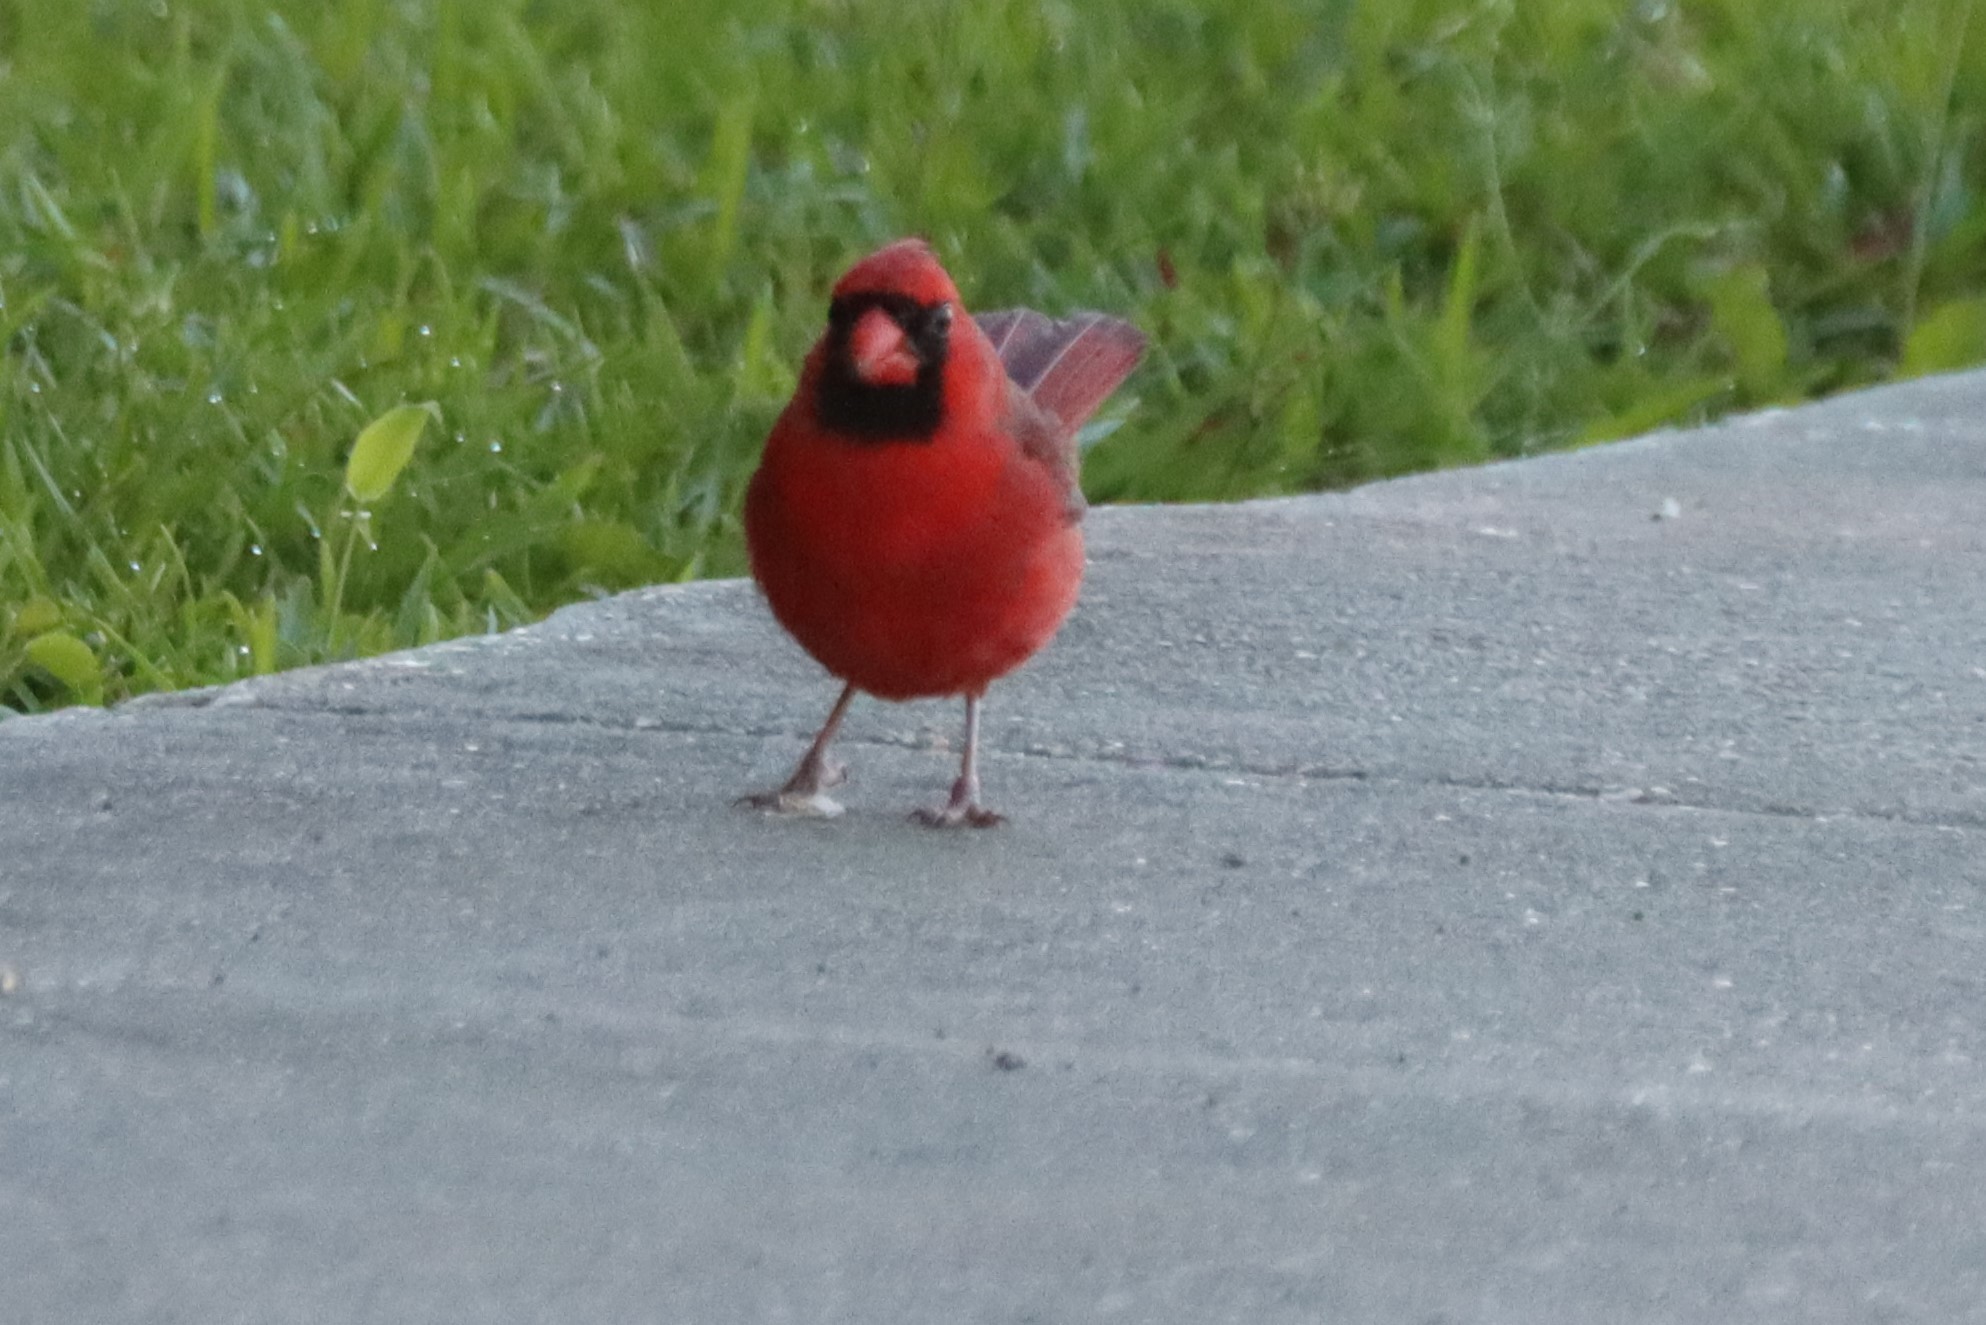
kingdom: Animalia
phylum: Chordata
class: Aves
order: Passeriformes
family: Cardinalidae
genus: Cardinalis
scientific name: Cardinalis cardinalis
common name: Northern cardinal
